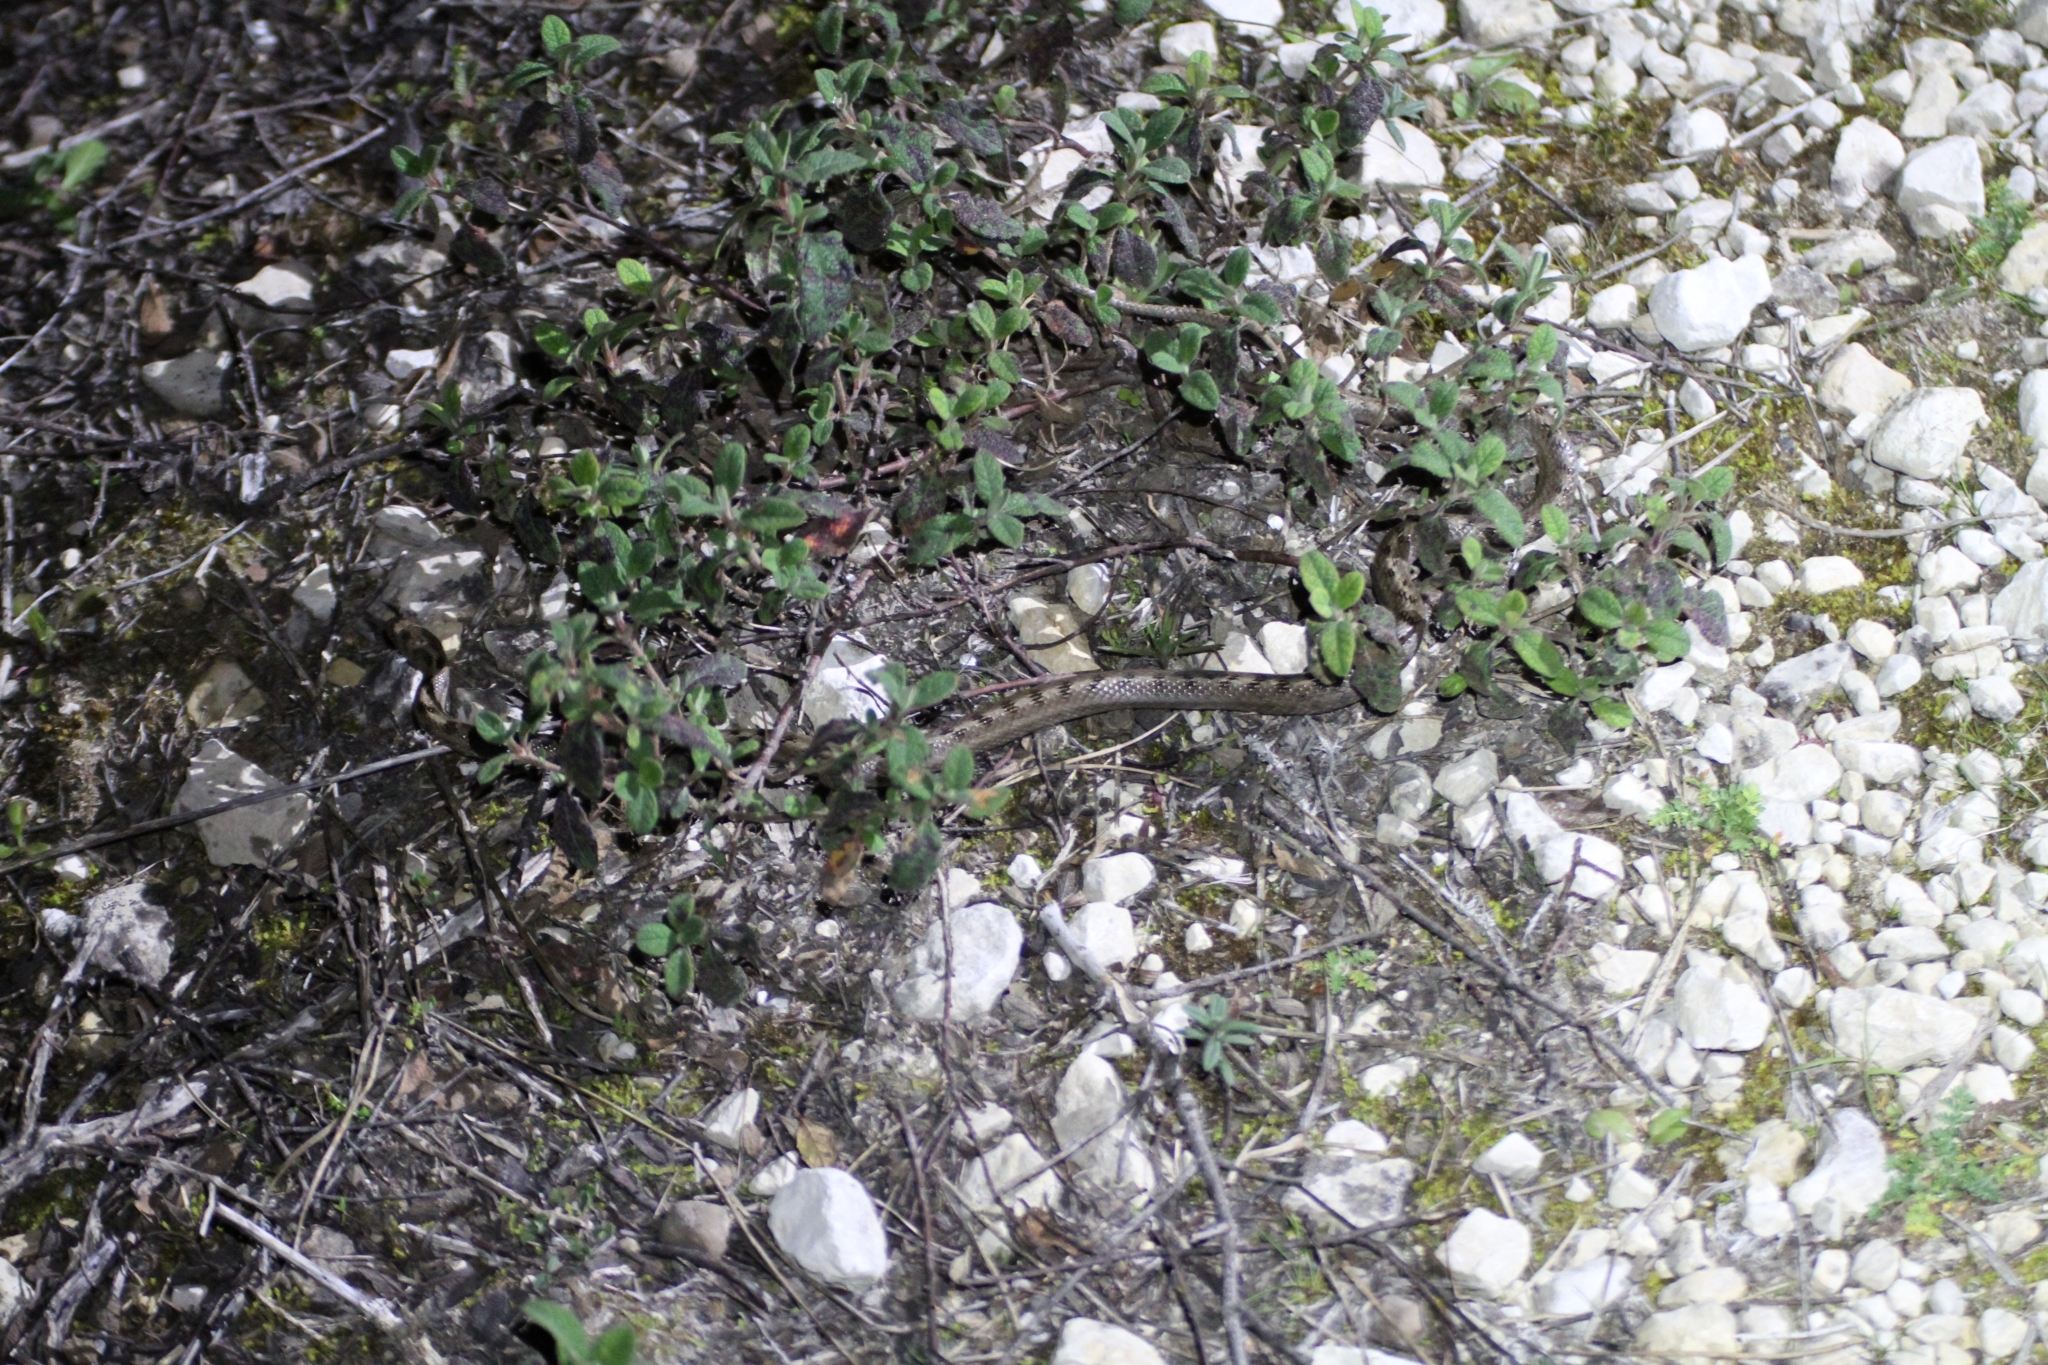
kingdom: Animalia
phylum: Chordata
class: Squamata
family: Colubridae
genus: Coronella
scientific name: Coronella girondica
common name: Southern smooth snake
